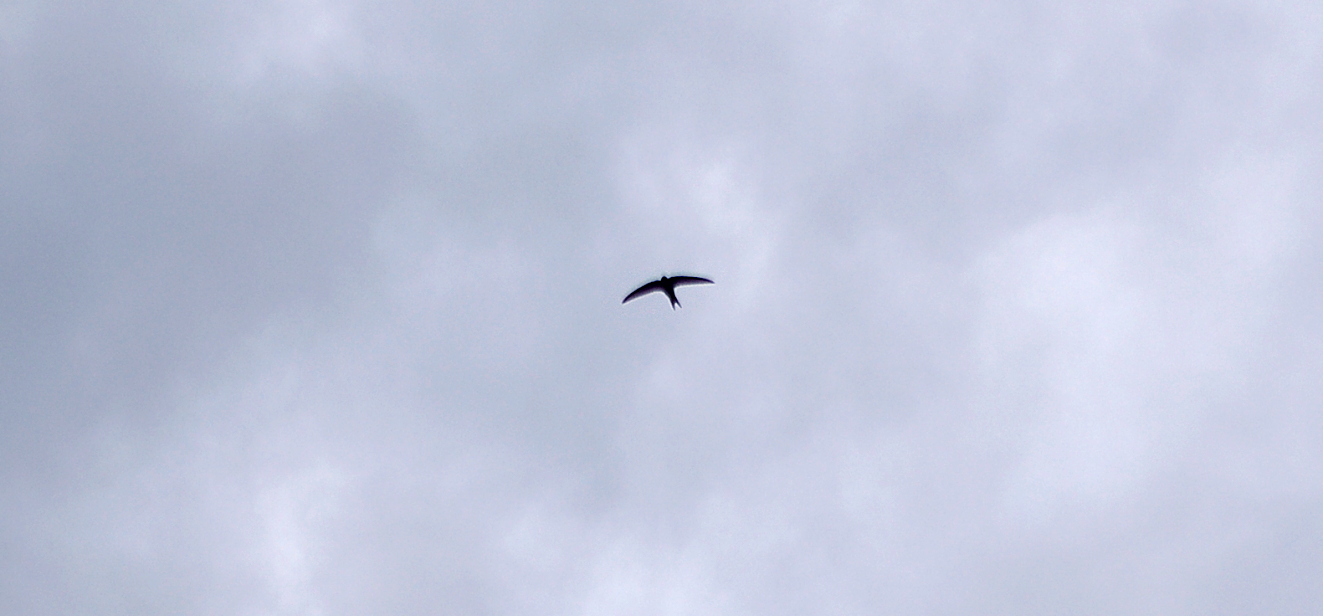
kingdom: Animalia
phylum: Chordata
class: Aves
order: Apodiformes
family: Apodidae
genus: Apus
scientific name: Apus apus
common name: Common swift
